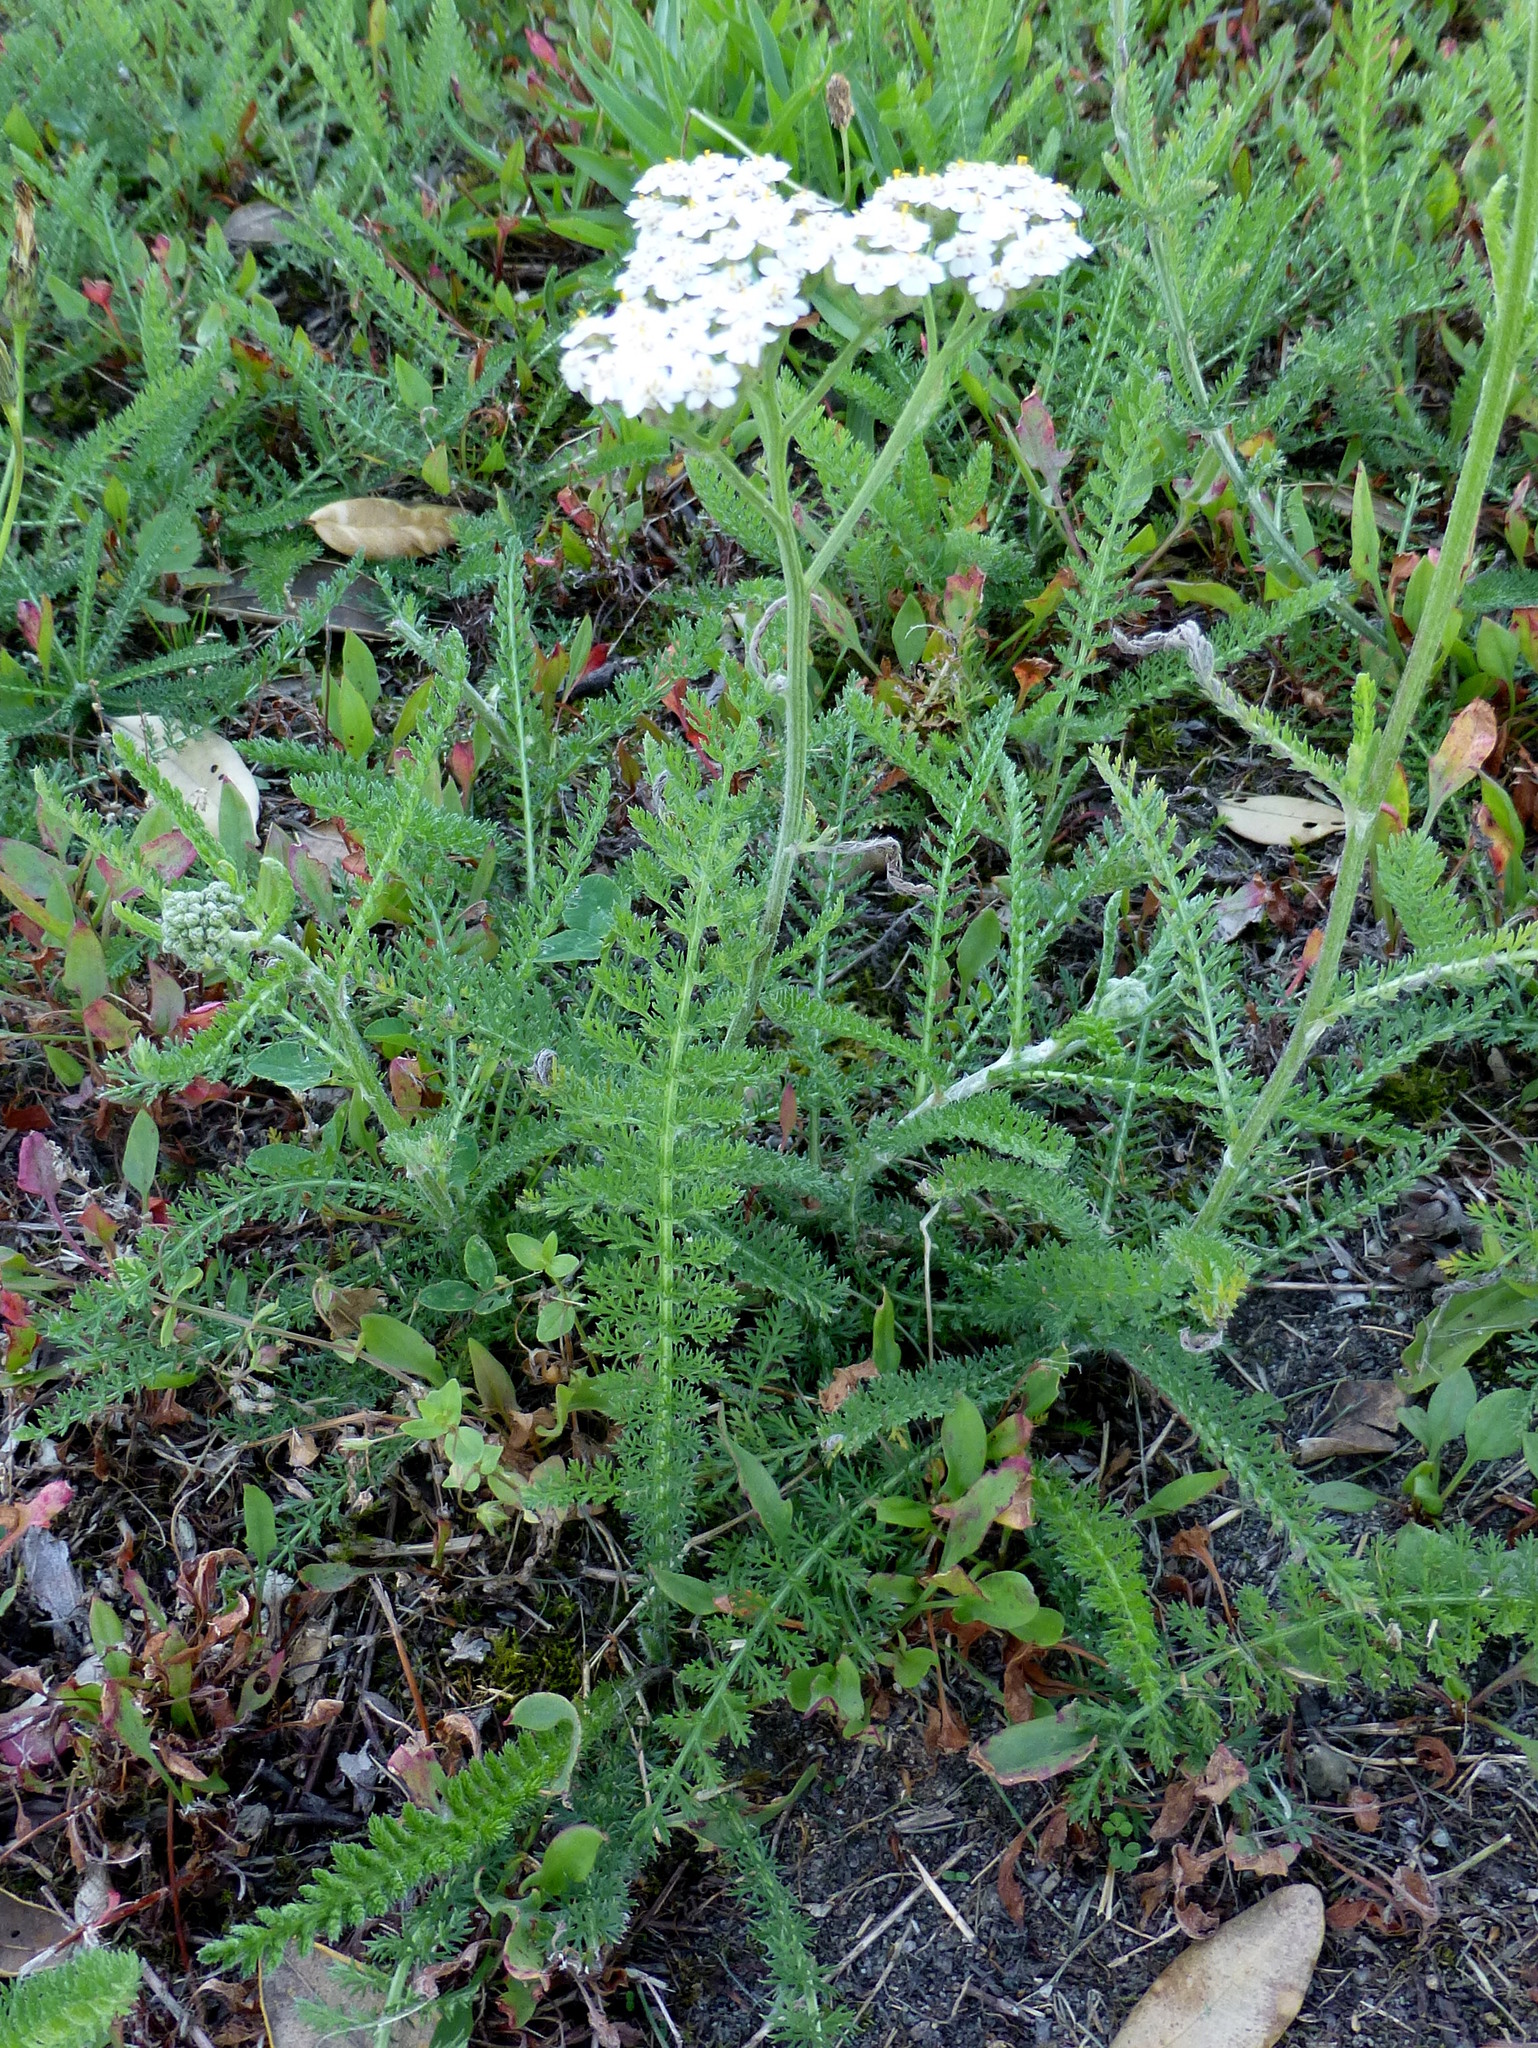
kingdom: Plantae
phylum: Tracheophyta
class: Magnoliopsida
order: Asterales
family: Asteraceae
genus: Achillea
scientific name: Achillea millefolium
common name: Yarrow
